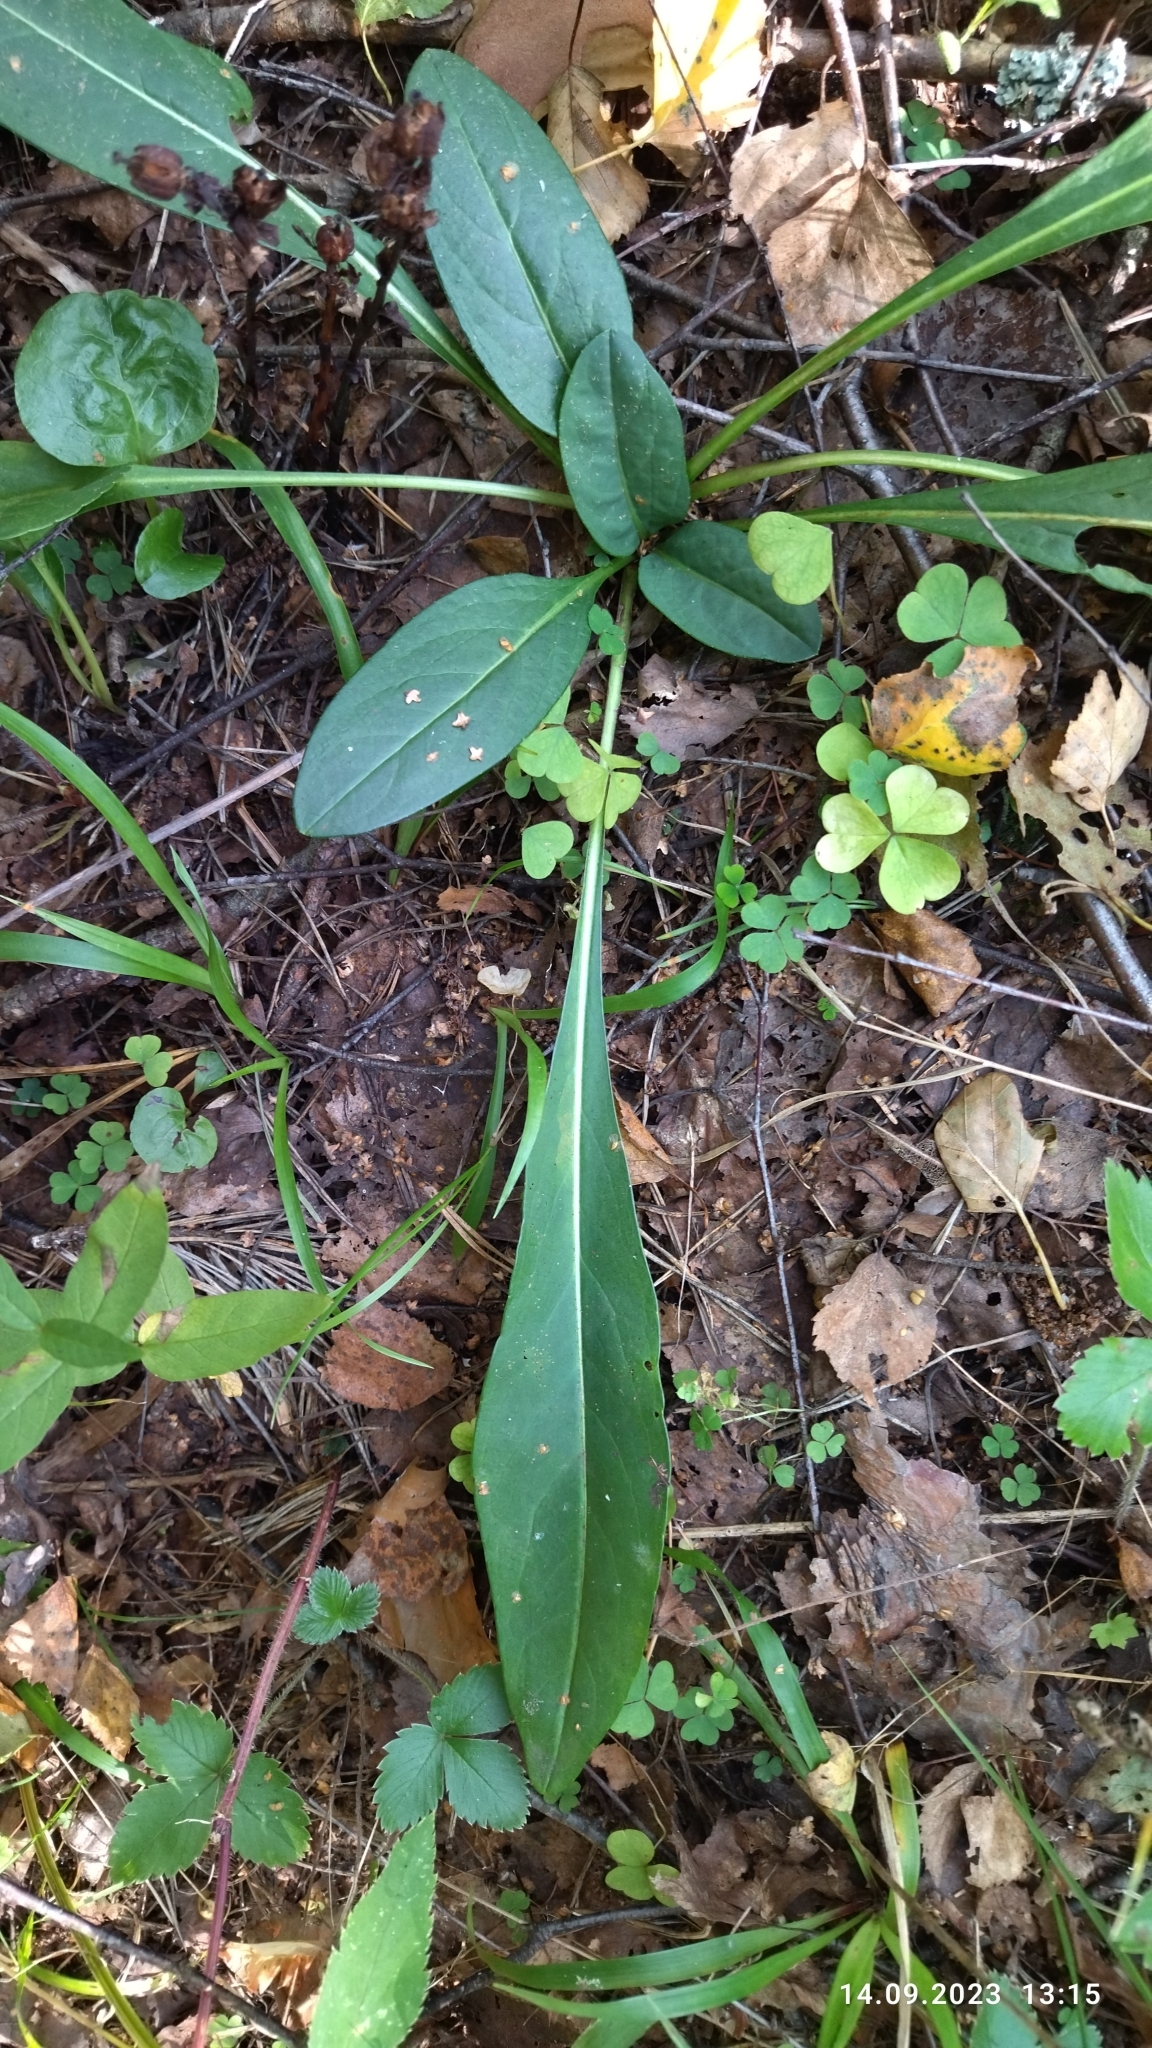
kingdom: Plantae
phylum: Tracheophyta
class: Magnoliopsida
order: Dipsacales
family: Caprifoliaceae
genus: Succisa
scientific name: Succisa pratensis
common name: Devil's-bit
